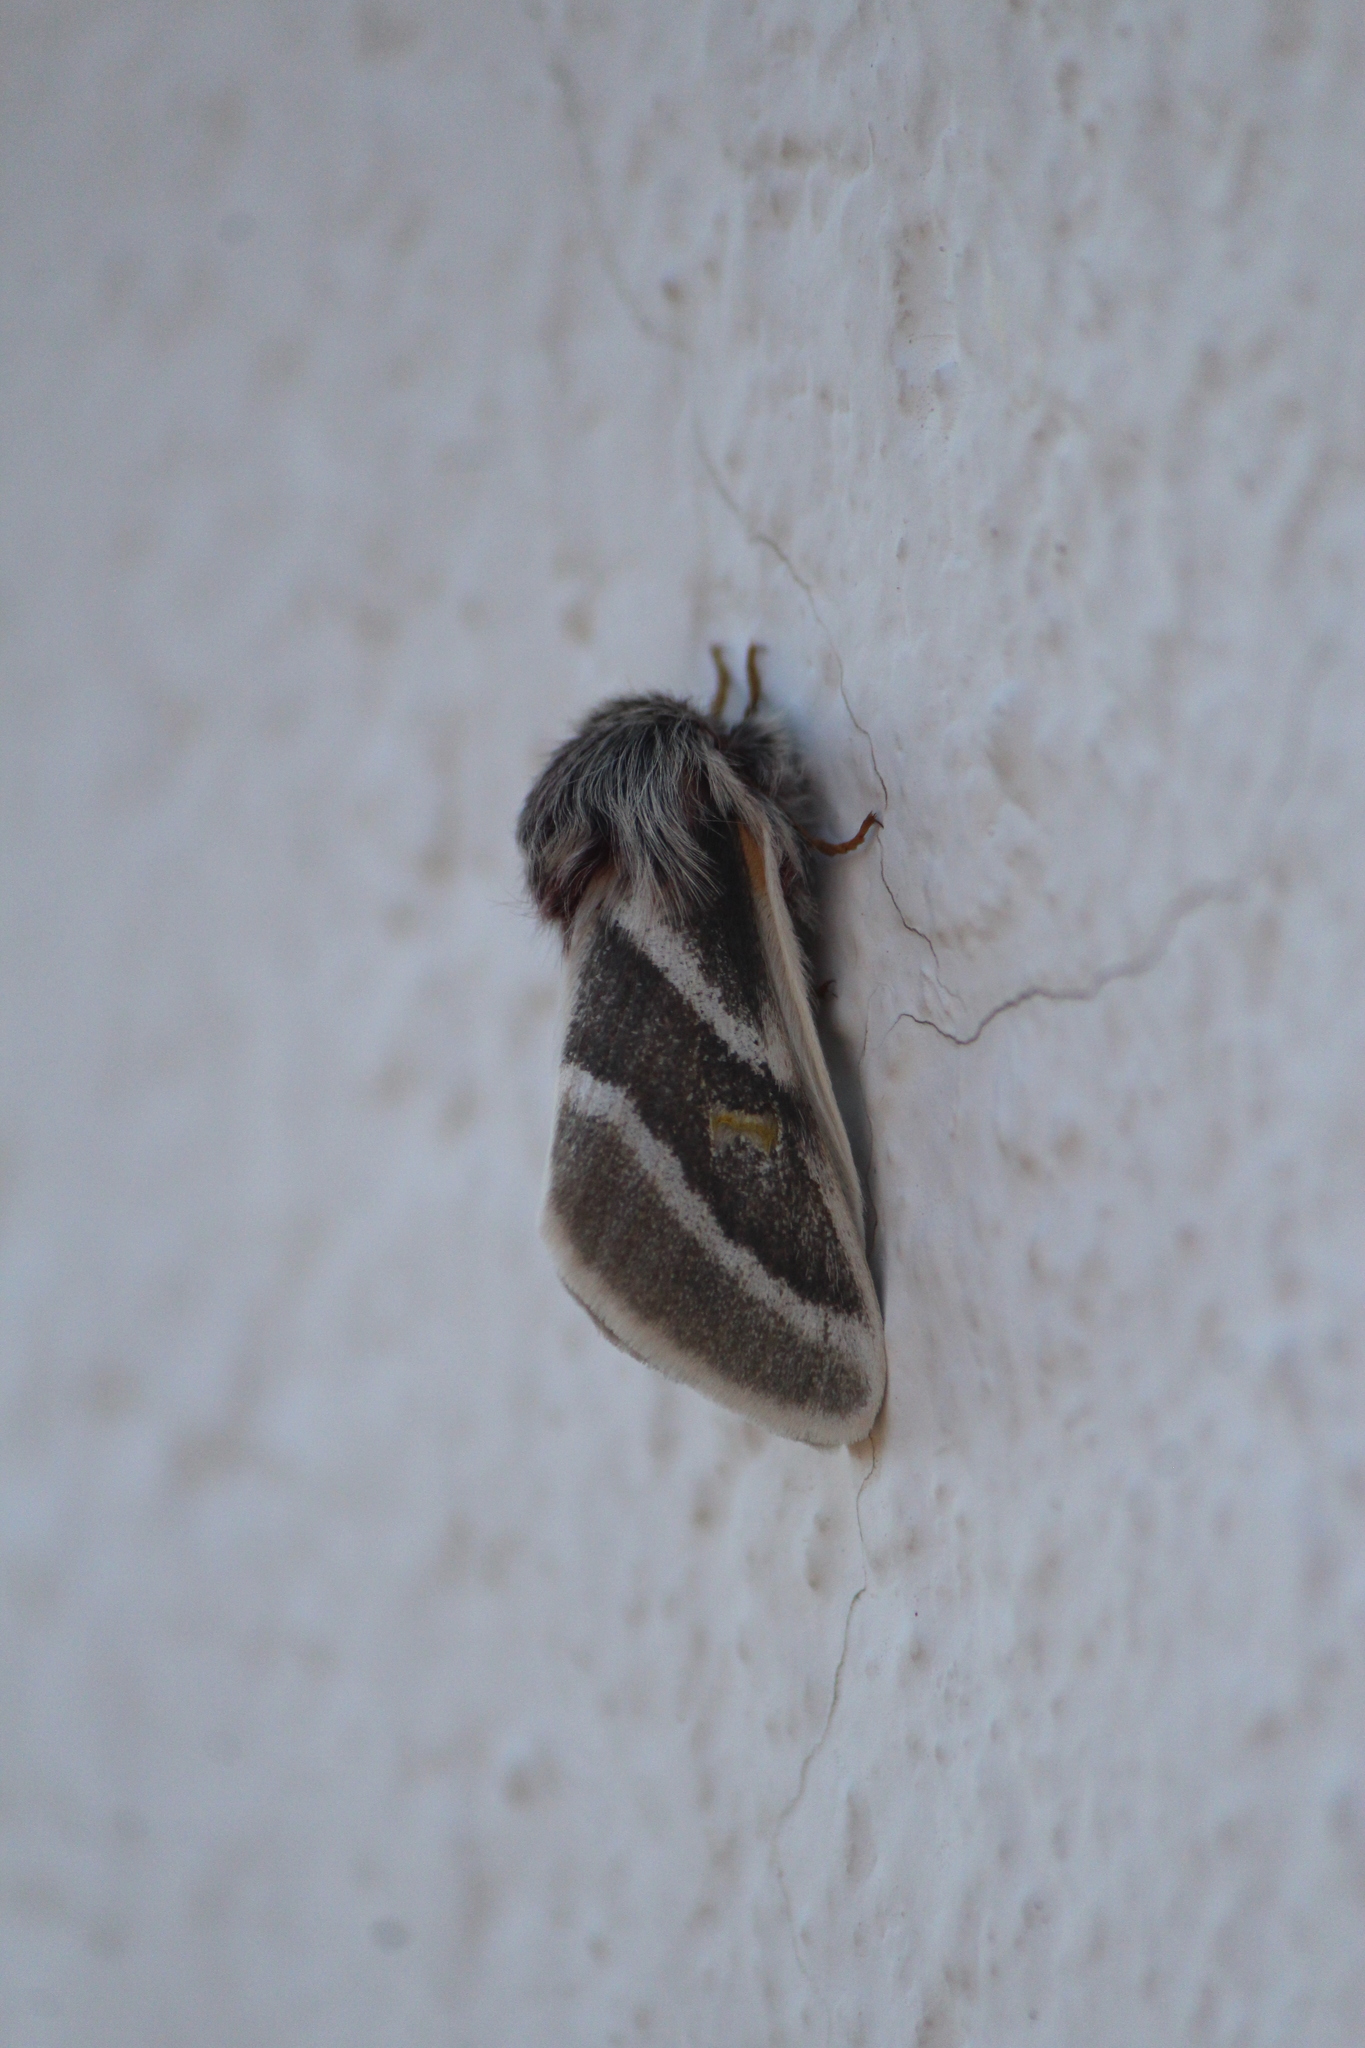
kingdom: Animalia
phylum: Arthropoda
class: Insecta
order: Lepidoptera
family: Saturniidae
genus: Hemileuca
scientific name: Hemileuca tricolor
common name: Tricolor buckmoth
